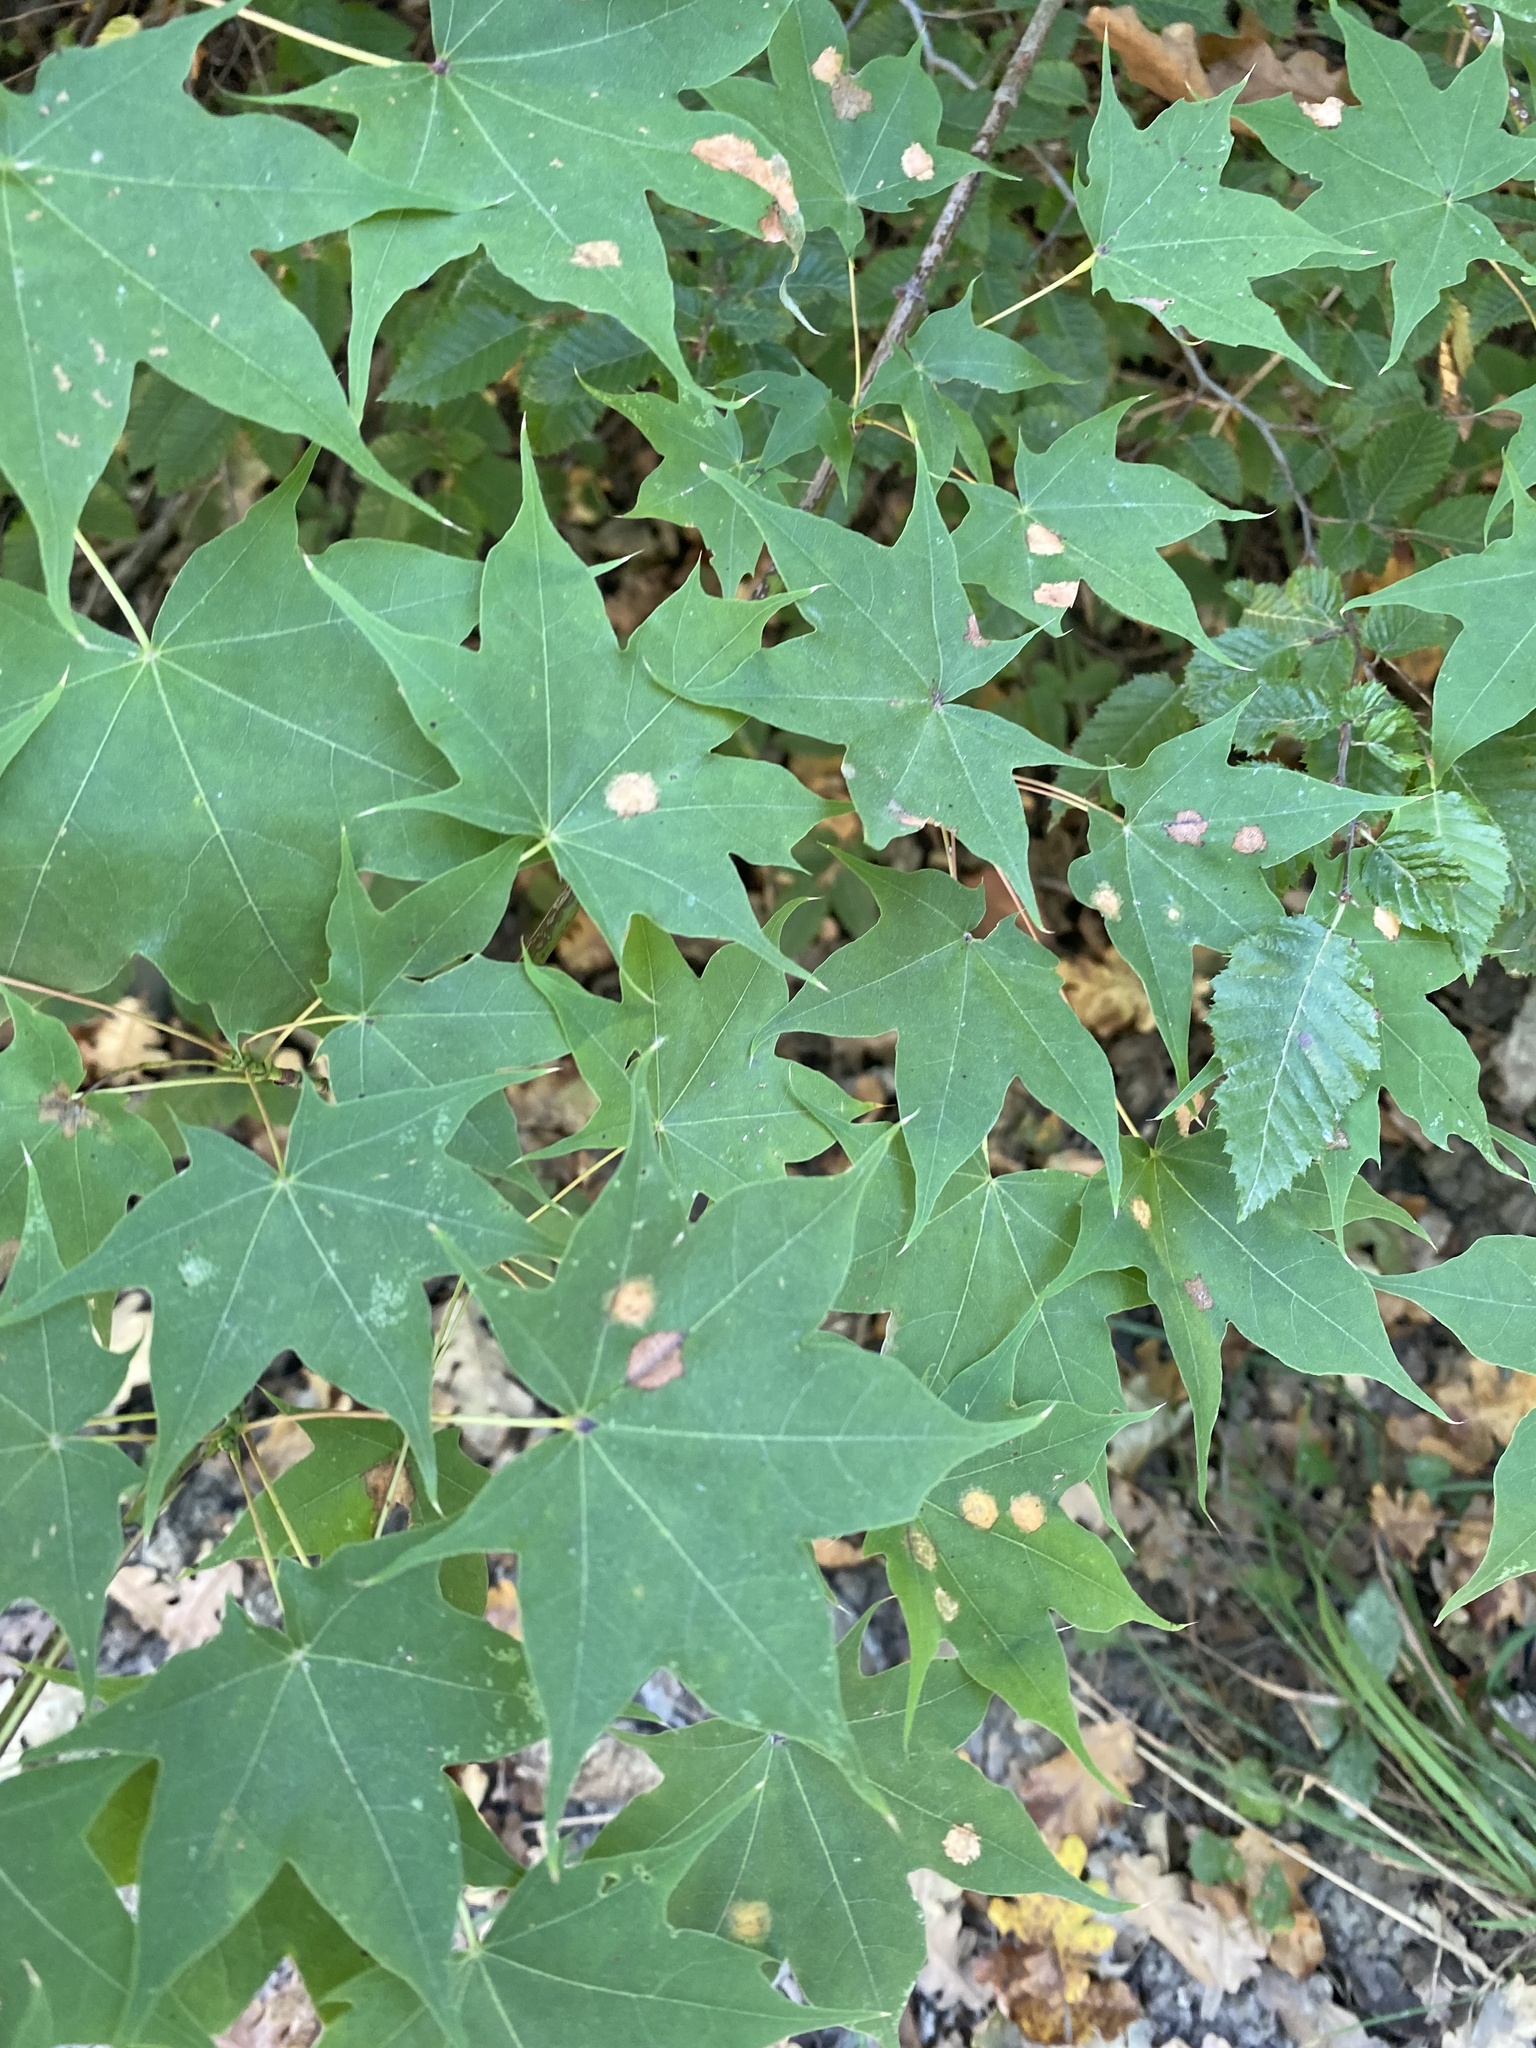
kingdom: Plantae
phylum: Tracheophyta
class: Magnoliopsida
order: Sapindales
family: Sapindaceae
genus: Acer
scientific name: Acer cappadocicum
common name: Cappadocian maple
